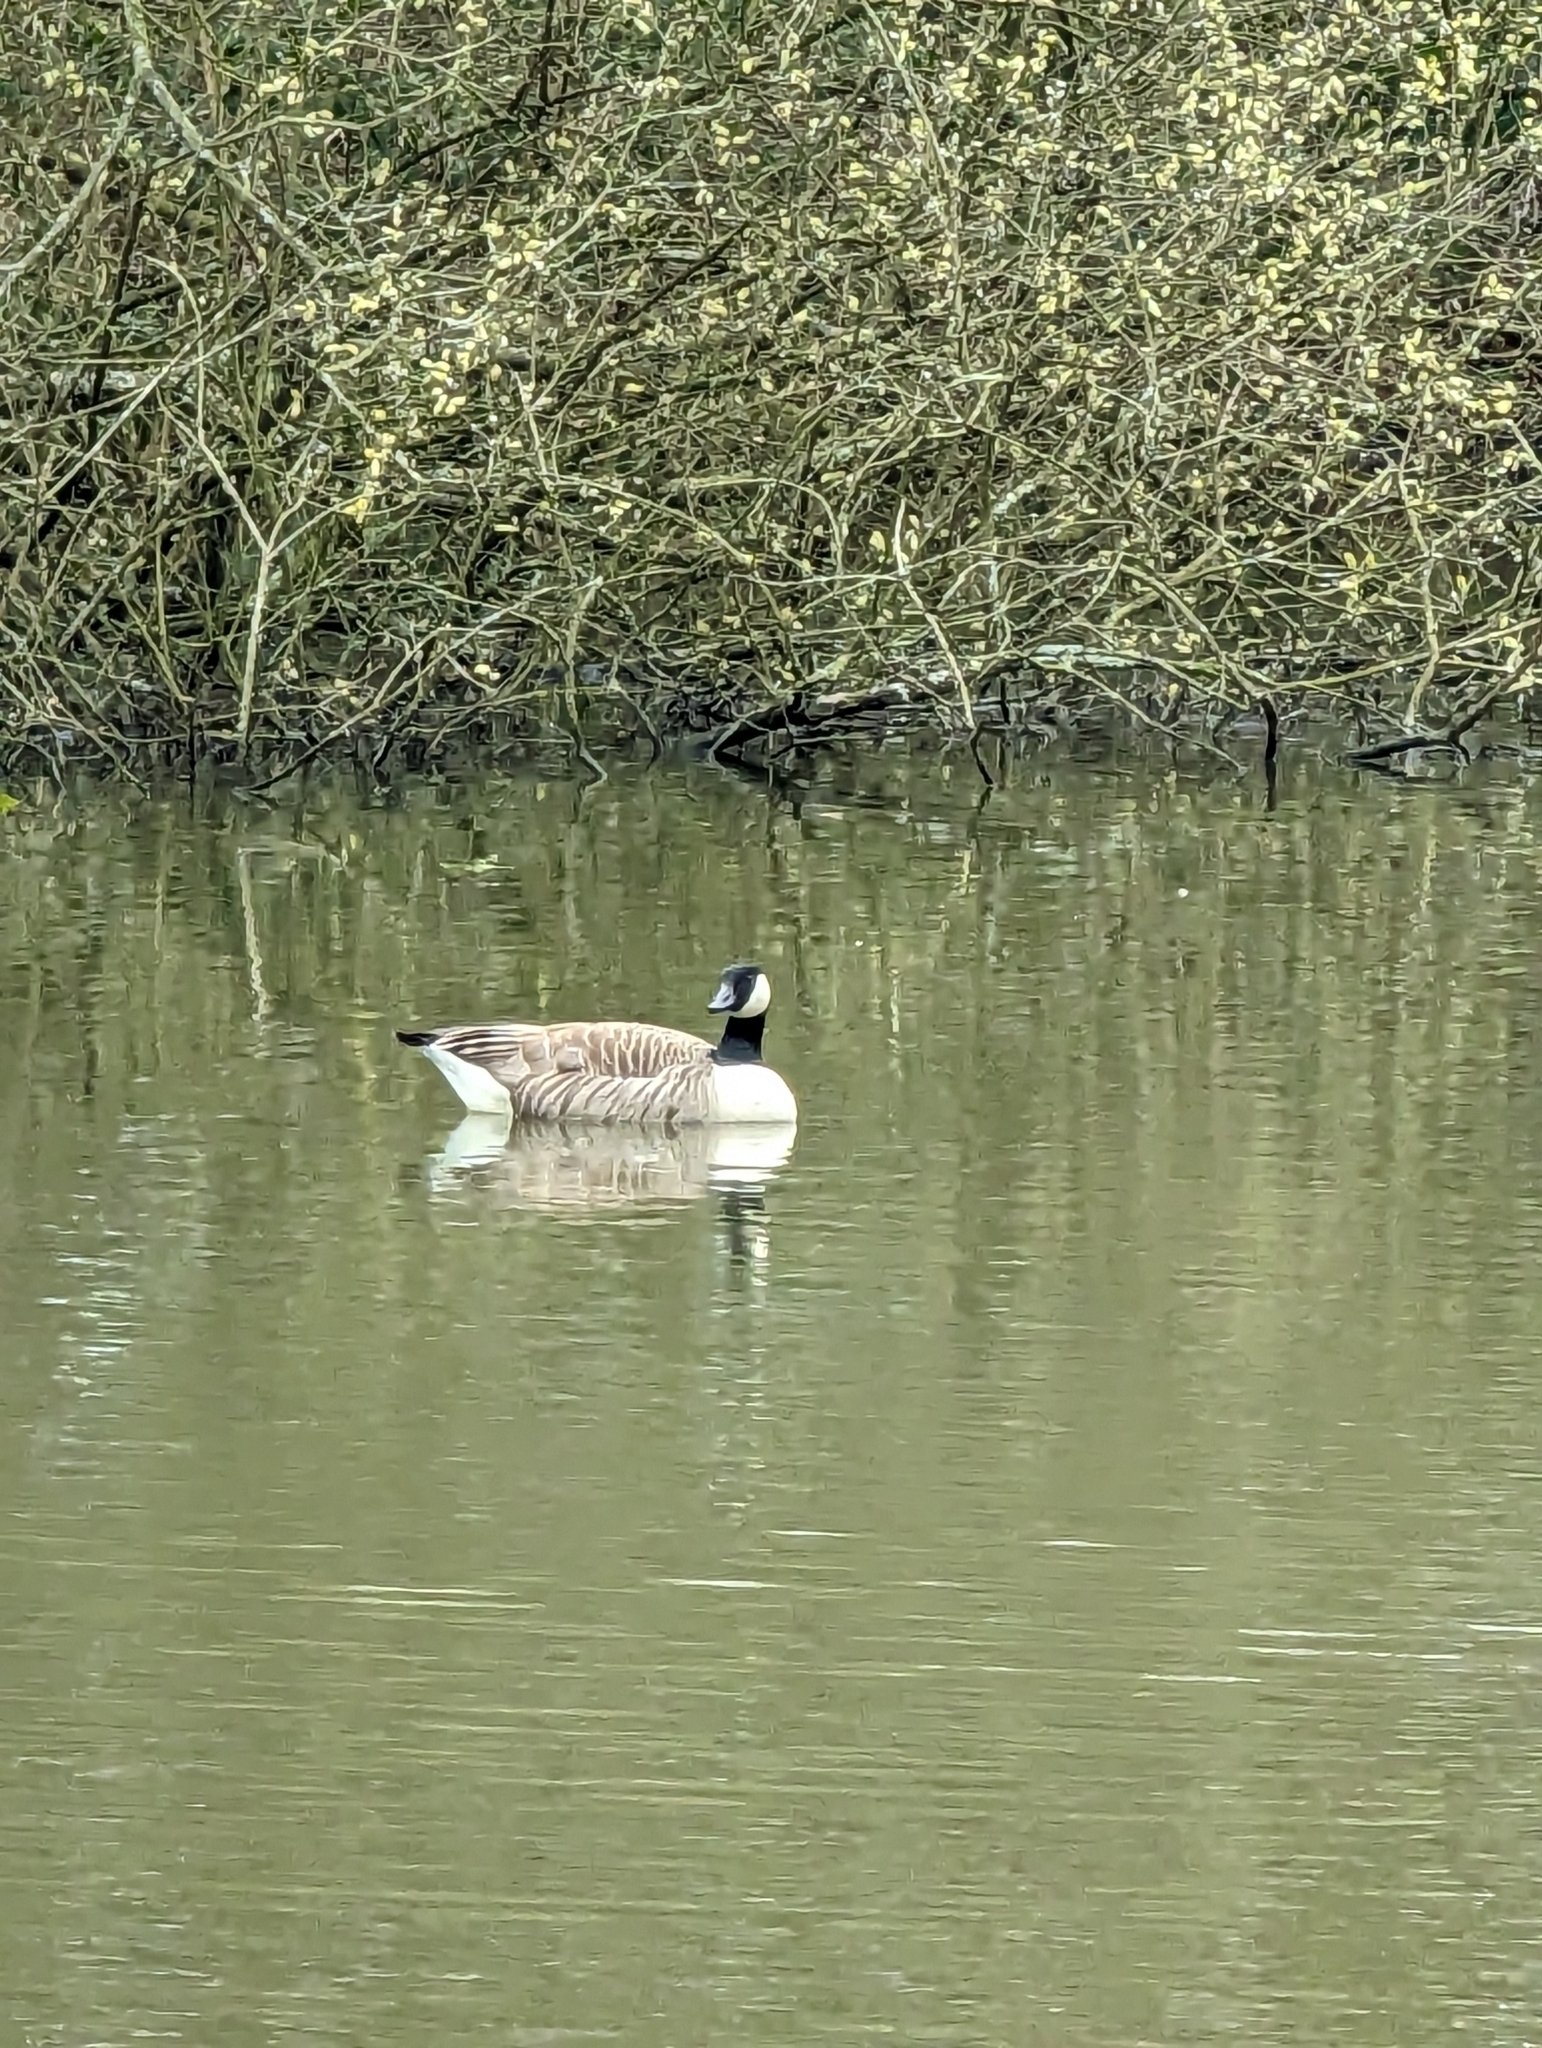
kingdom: Animalia
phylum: Chordata
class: Aves
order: Anseriformes
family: Anatidae
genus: Branta
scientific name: Branta canadensis
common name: Canada goose
